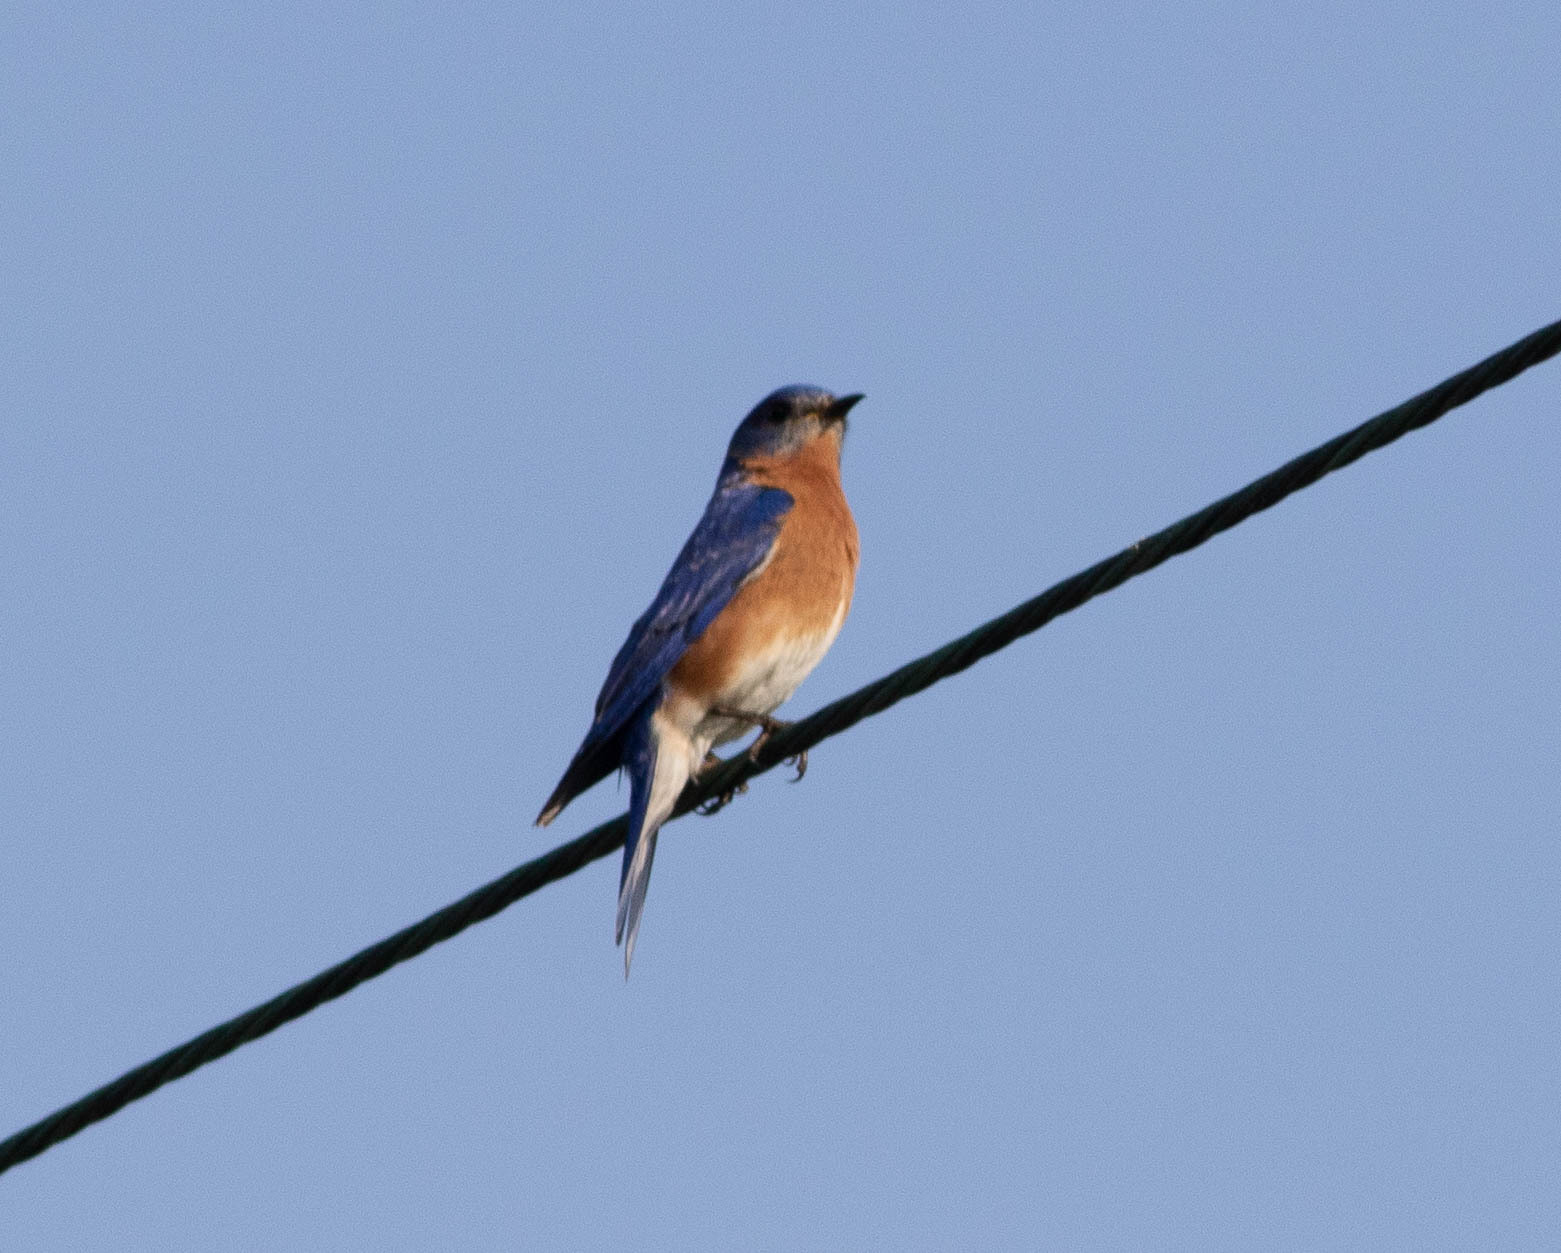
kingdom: Animalia
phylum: Chordata
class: Aves
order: Passeriformes
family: Turdidae
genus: Sialia
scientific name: Sialia sialis
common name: Eastern bluebird
